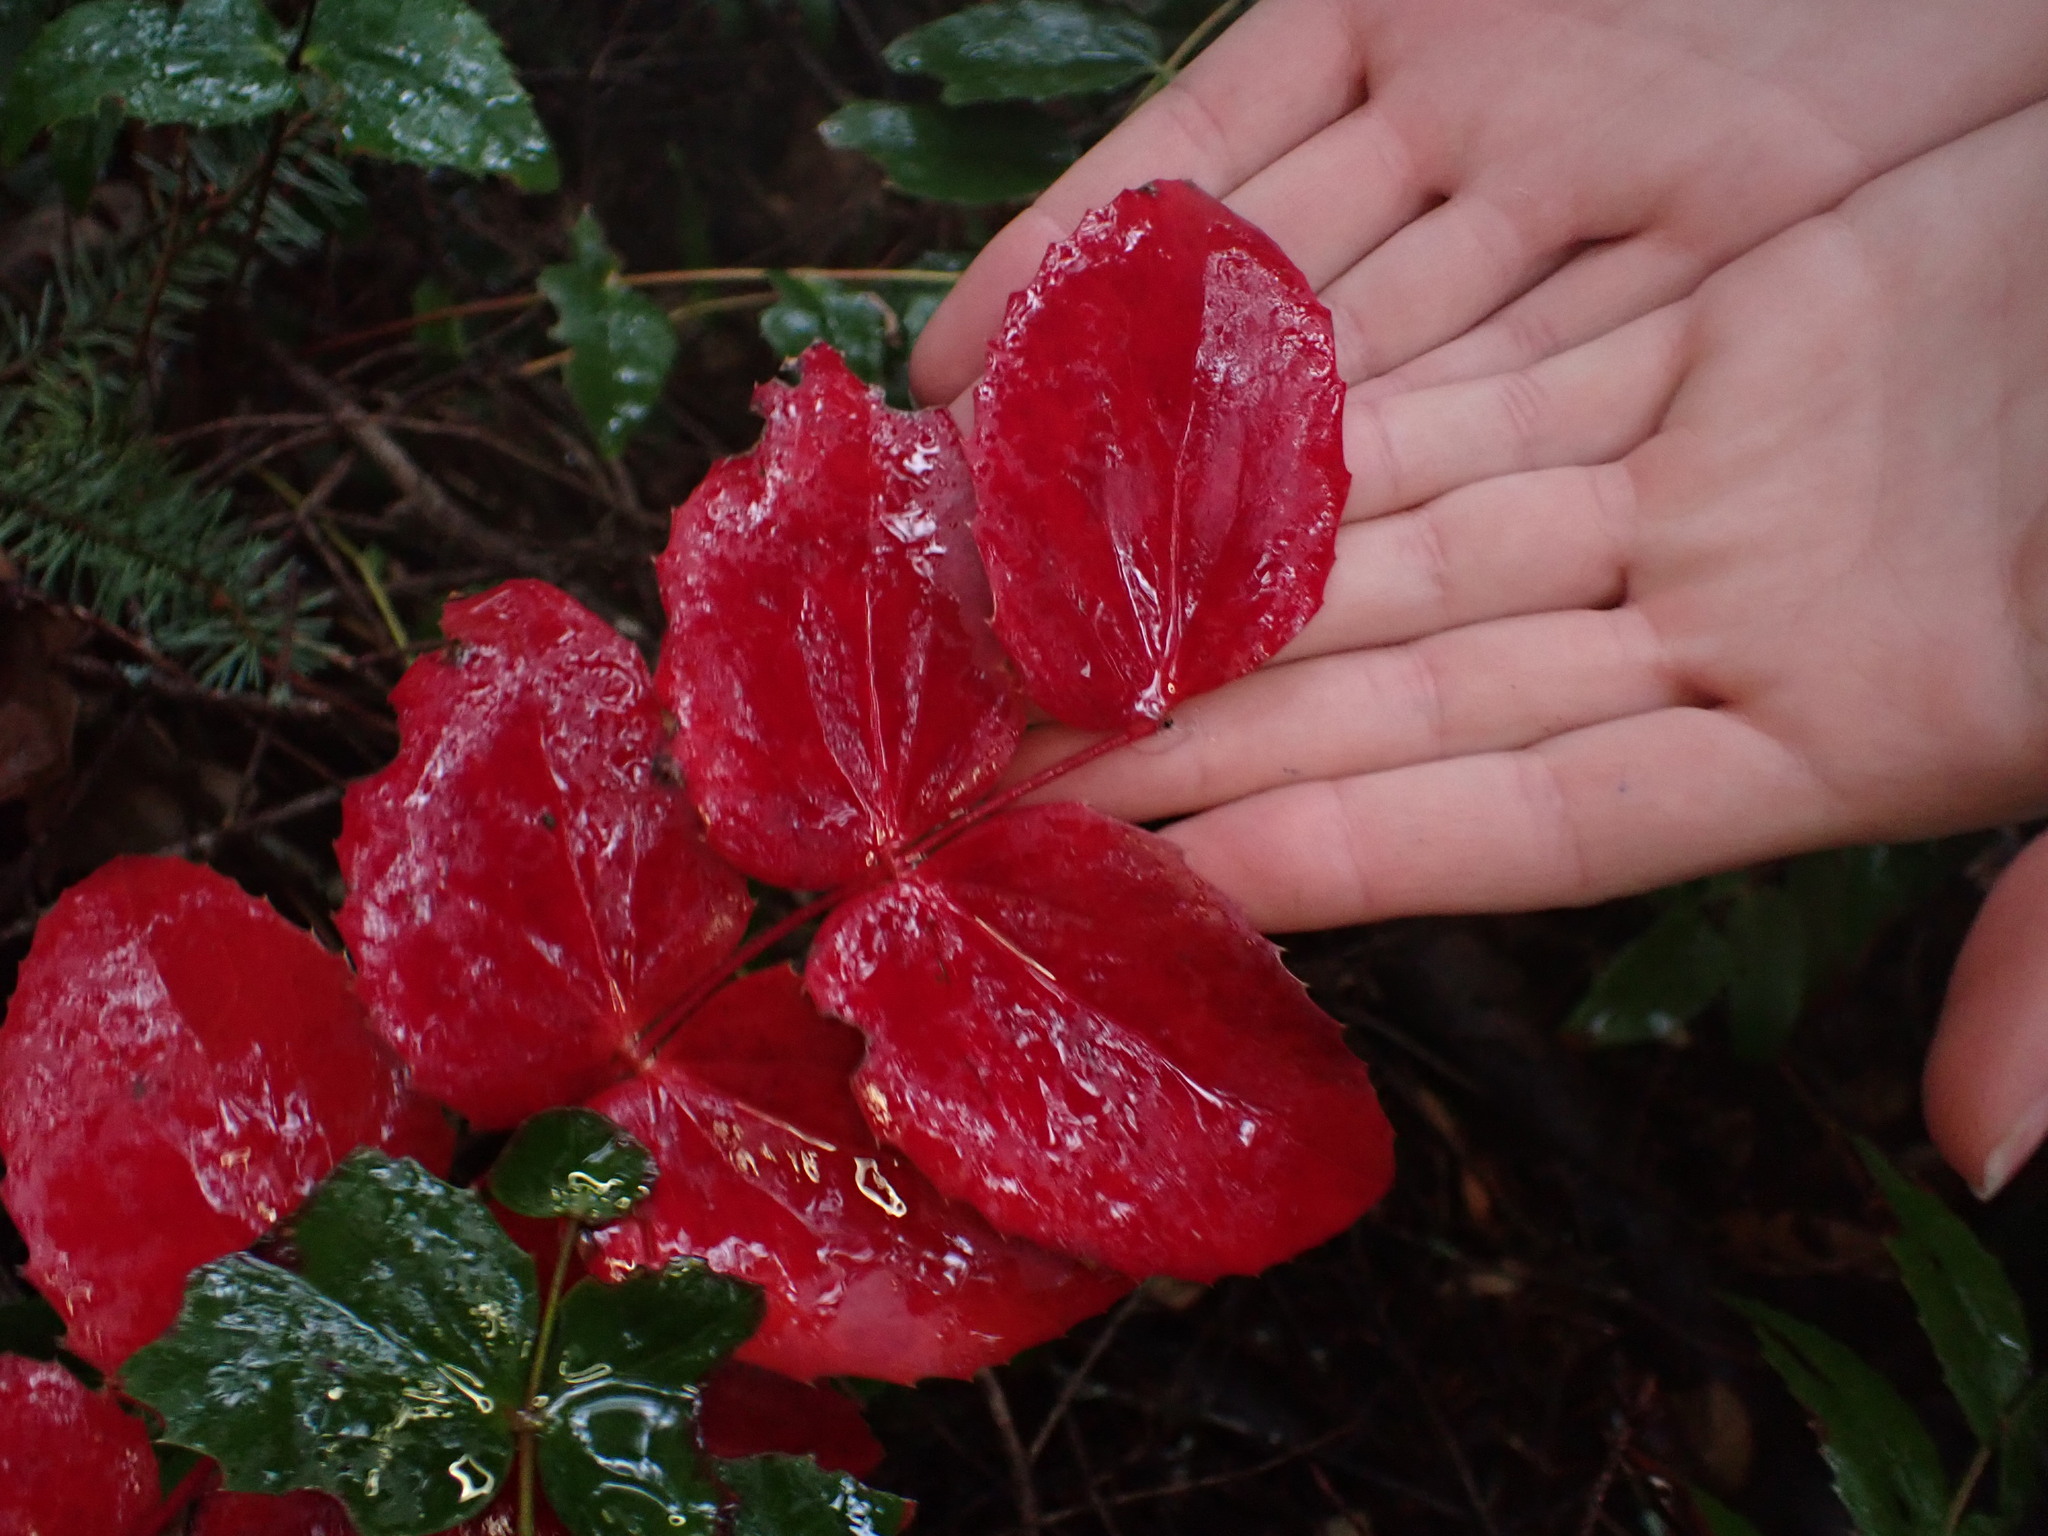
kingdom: Plantae
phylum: Tracheophyta
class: Magnoliopsida
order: Ranunculales
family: Berberidaceae
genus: Mahonia
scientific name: Mahonia nervosa
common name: Cascade oregon-grape
